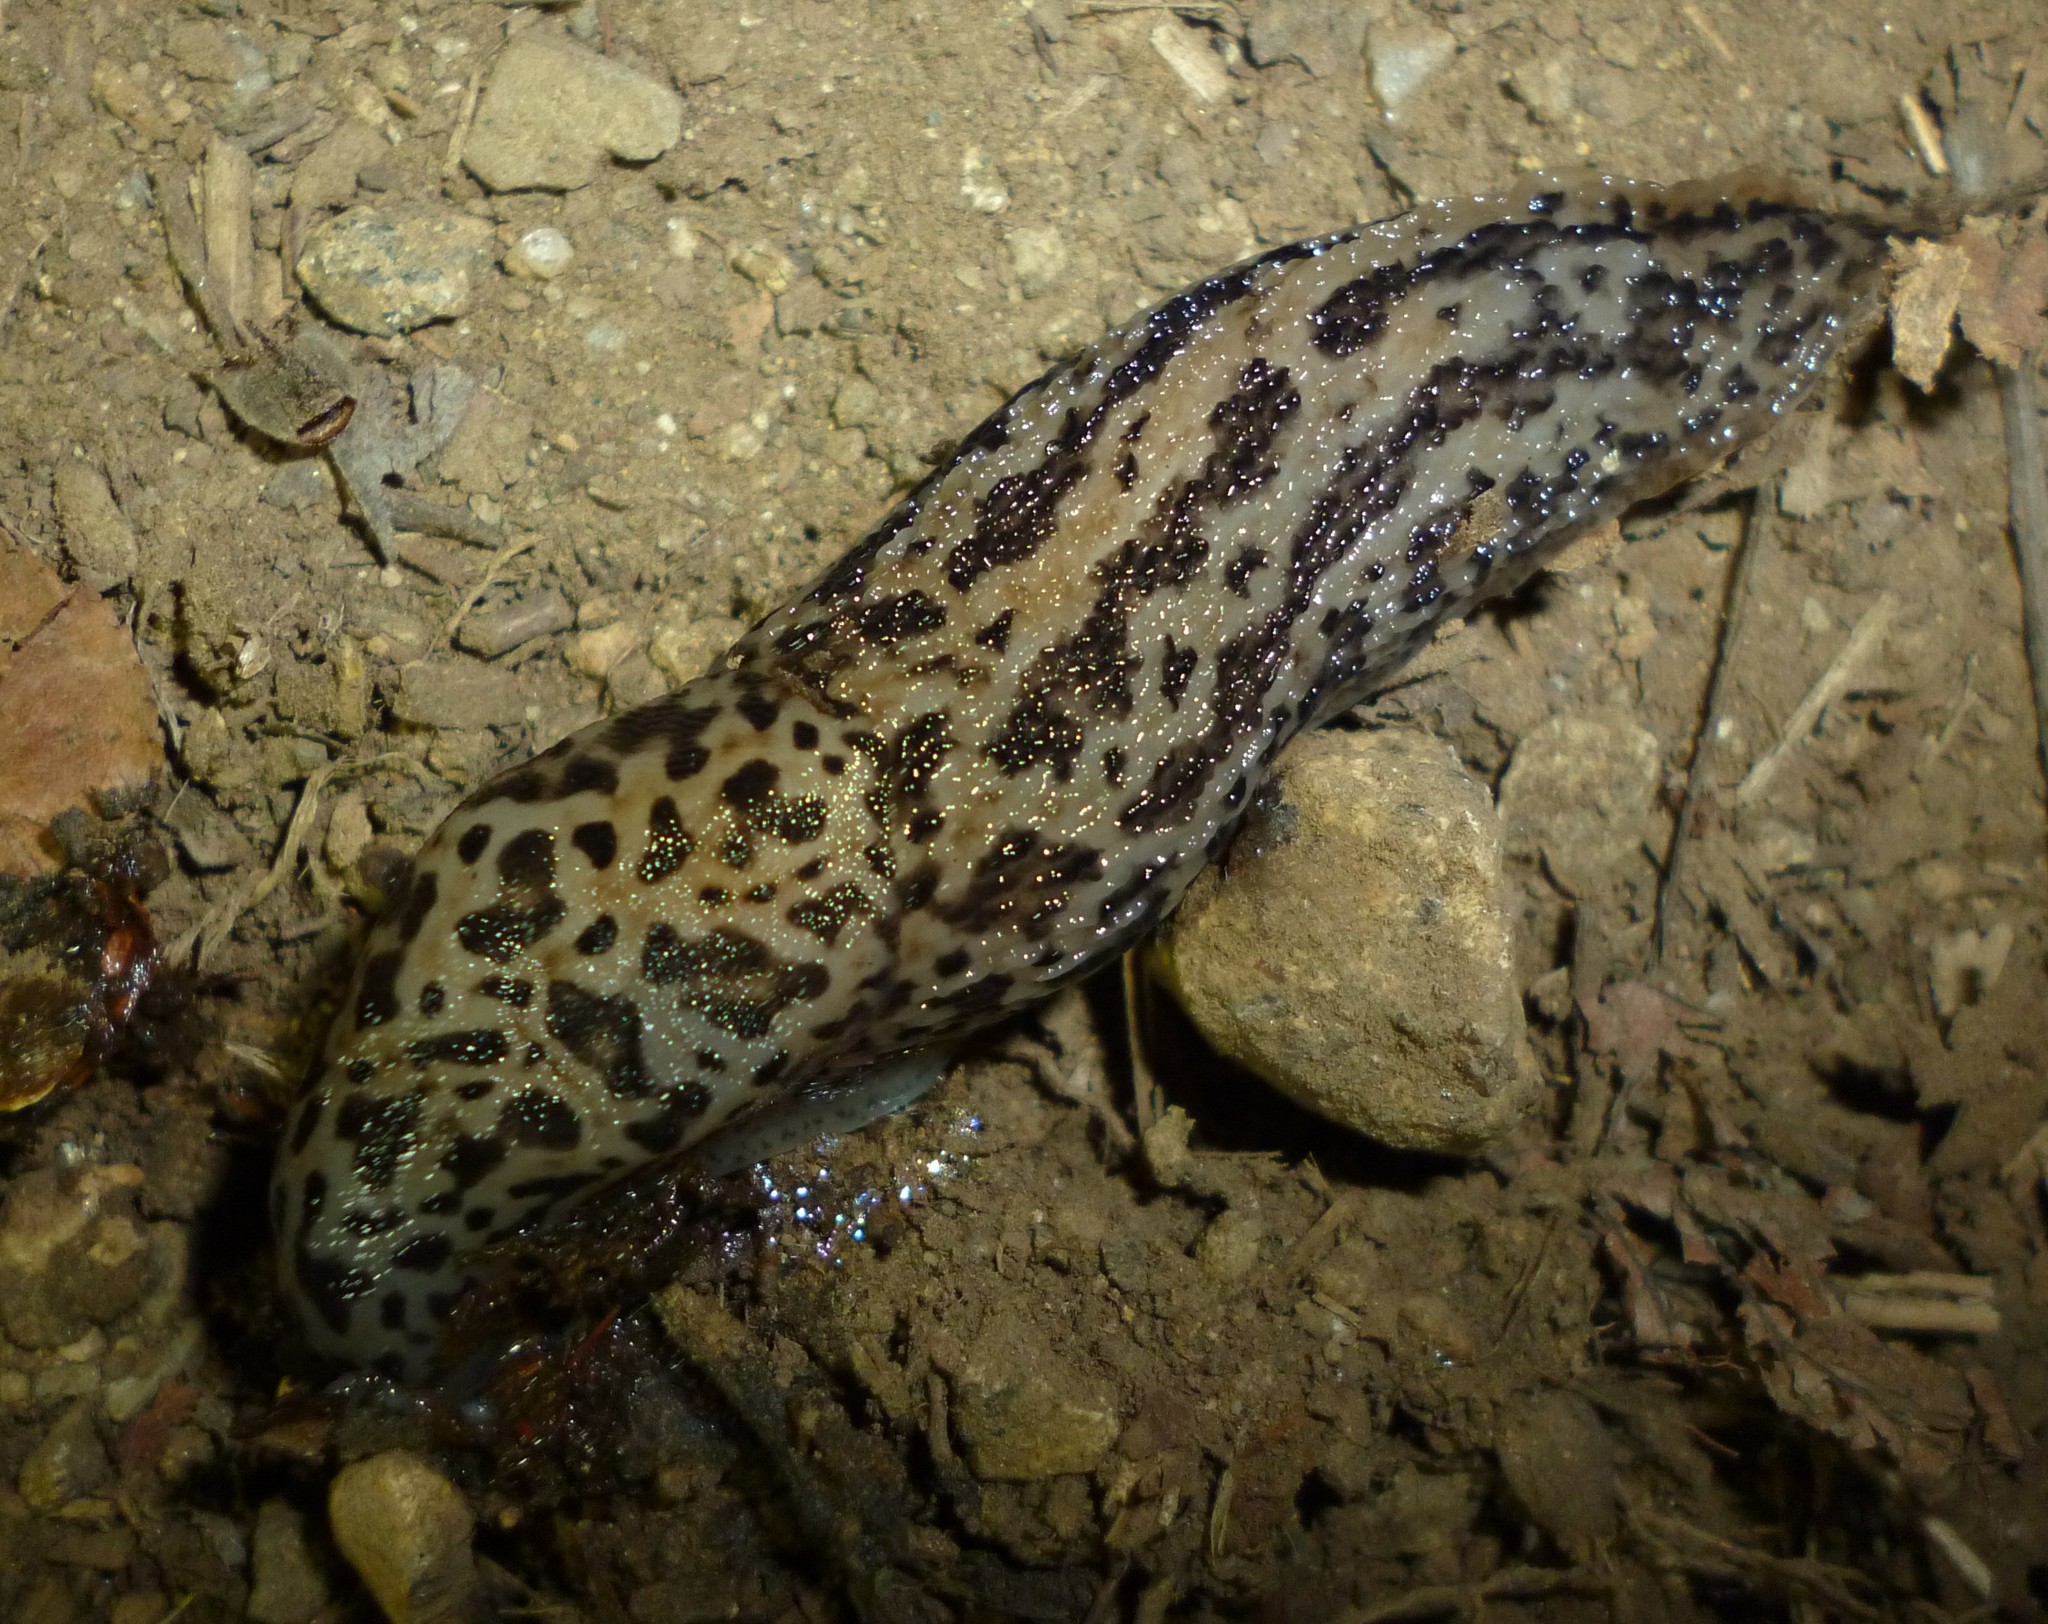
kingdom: Animalia
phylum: Mollusca
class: Gastropoda
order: Stylommatophora
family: Limacidae
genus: Limax
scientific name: Limax maximus
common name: Great grey slug
